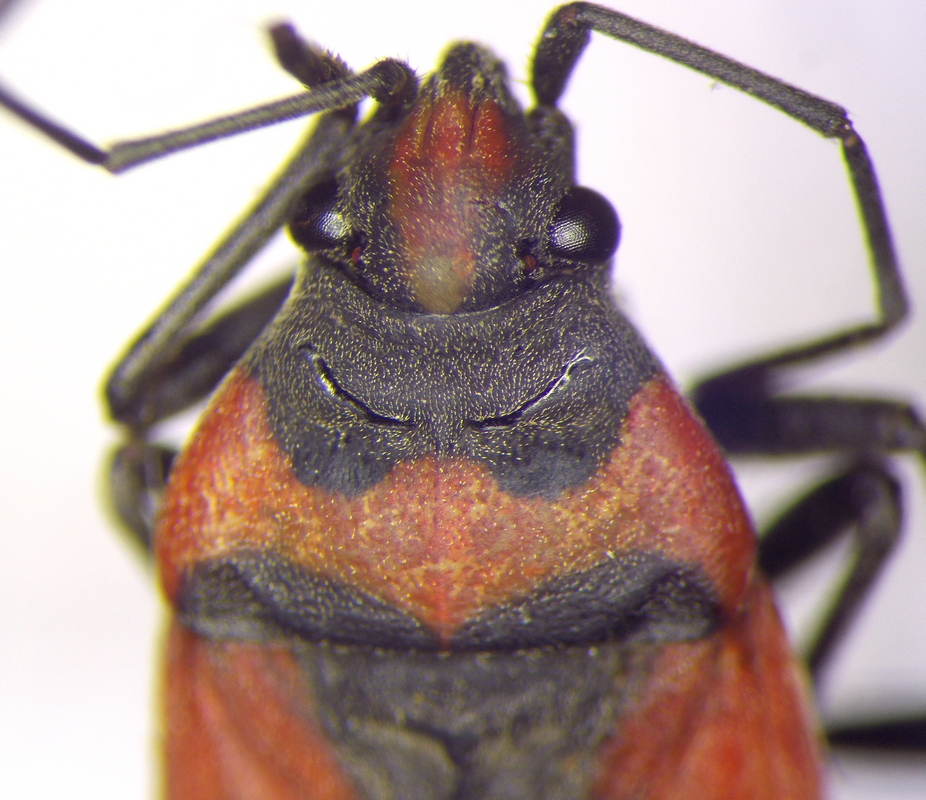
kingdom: Animalia
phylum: Arthropoda
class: Insecta
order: Hemiptera
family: Lygaeidae
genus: Lygaeus
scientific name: Lygaeus equestris
